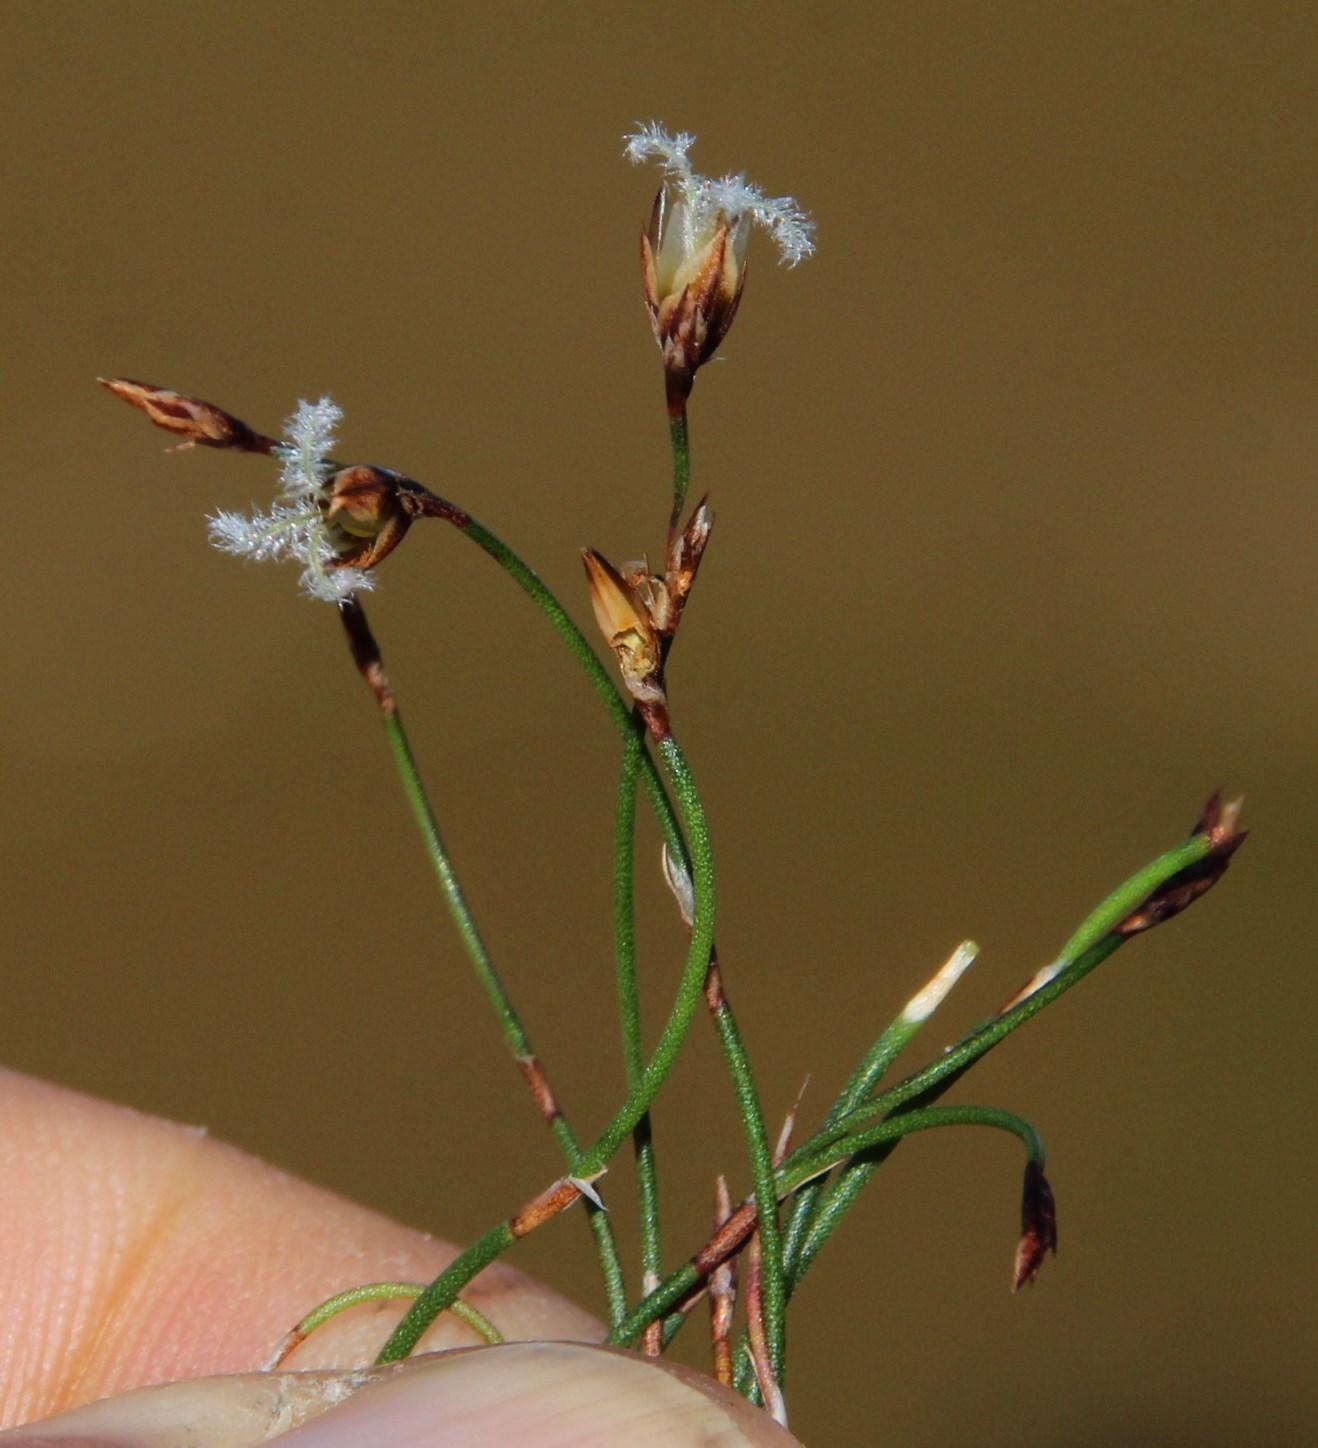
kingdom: Plantae
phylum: Tracheophyta
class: Liliopsida
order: Poales
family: Restionaceae
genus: Restio
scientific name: Restio perplexus
